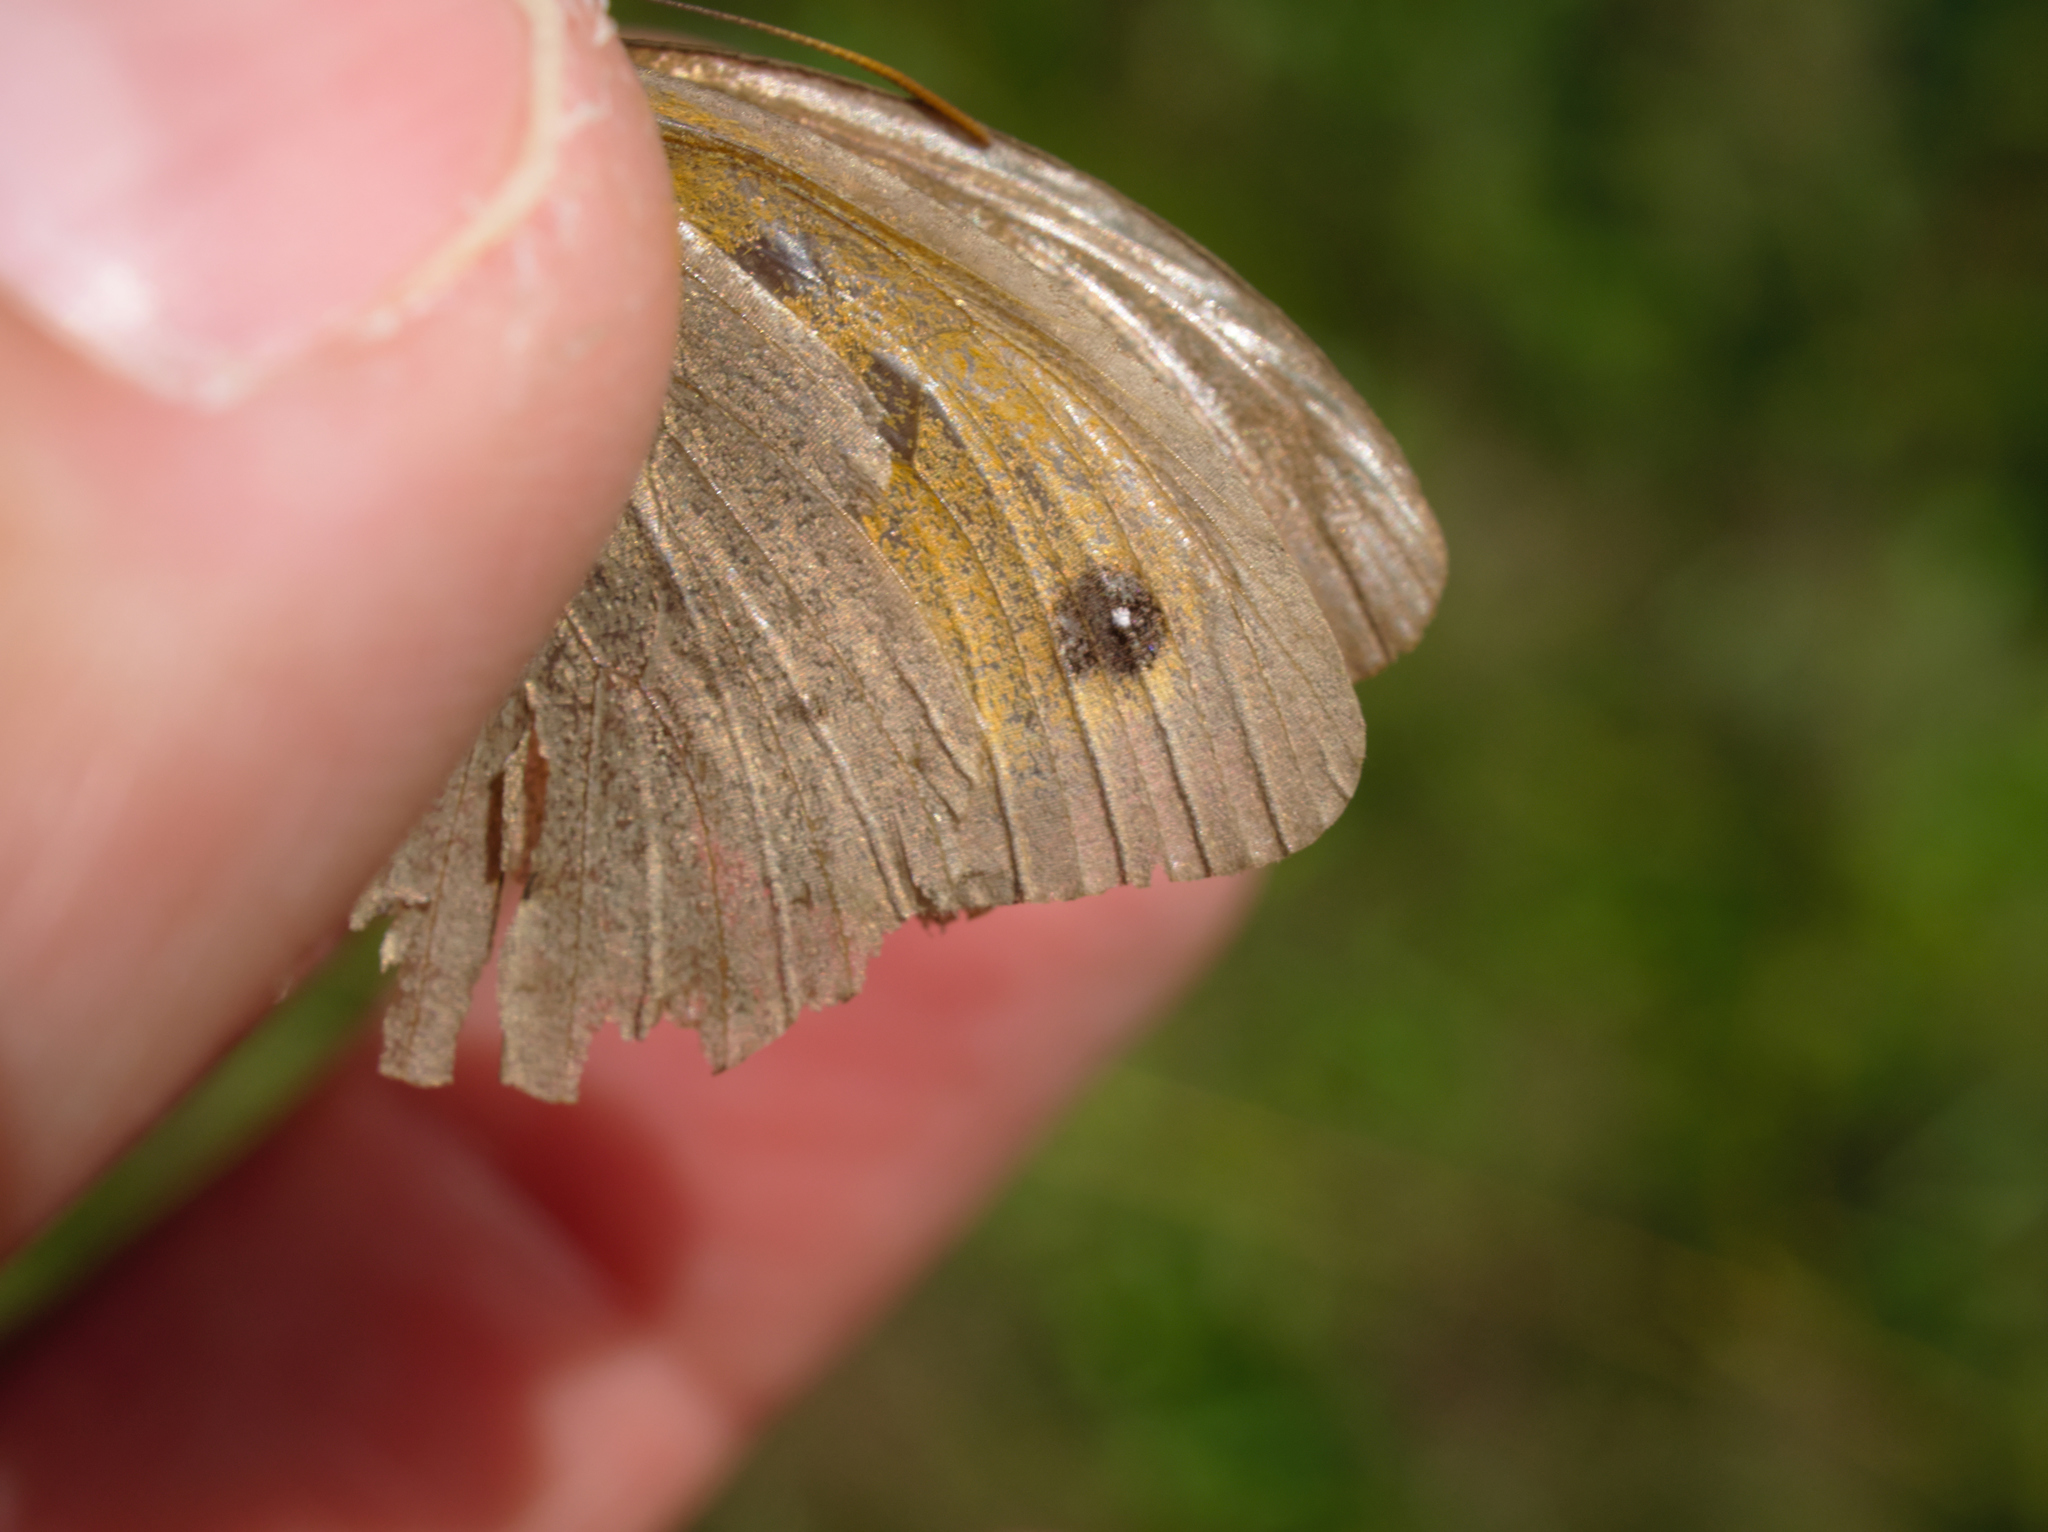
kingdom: Animalia
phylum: Arthropoda
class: Insecta
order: Lepidoptera
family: Nymphalidae
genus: Maniola
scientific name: Maniola jurtina
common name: Meadow brown
